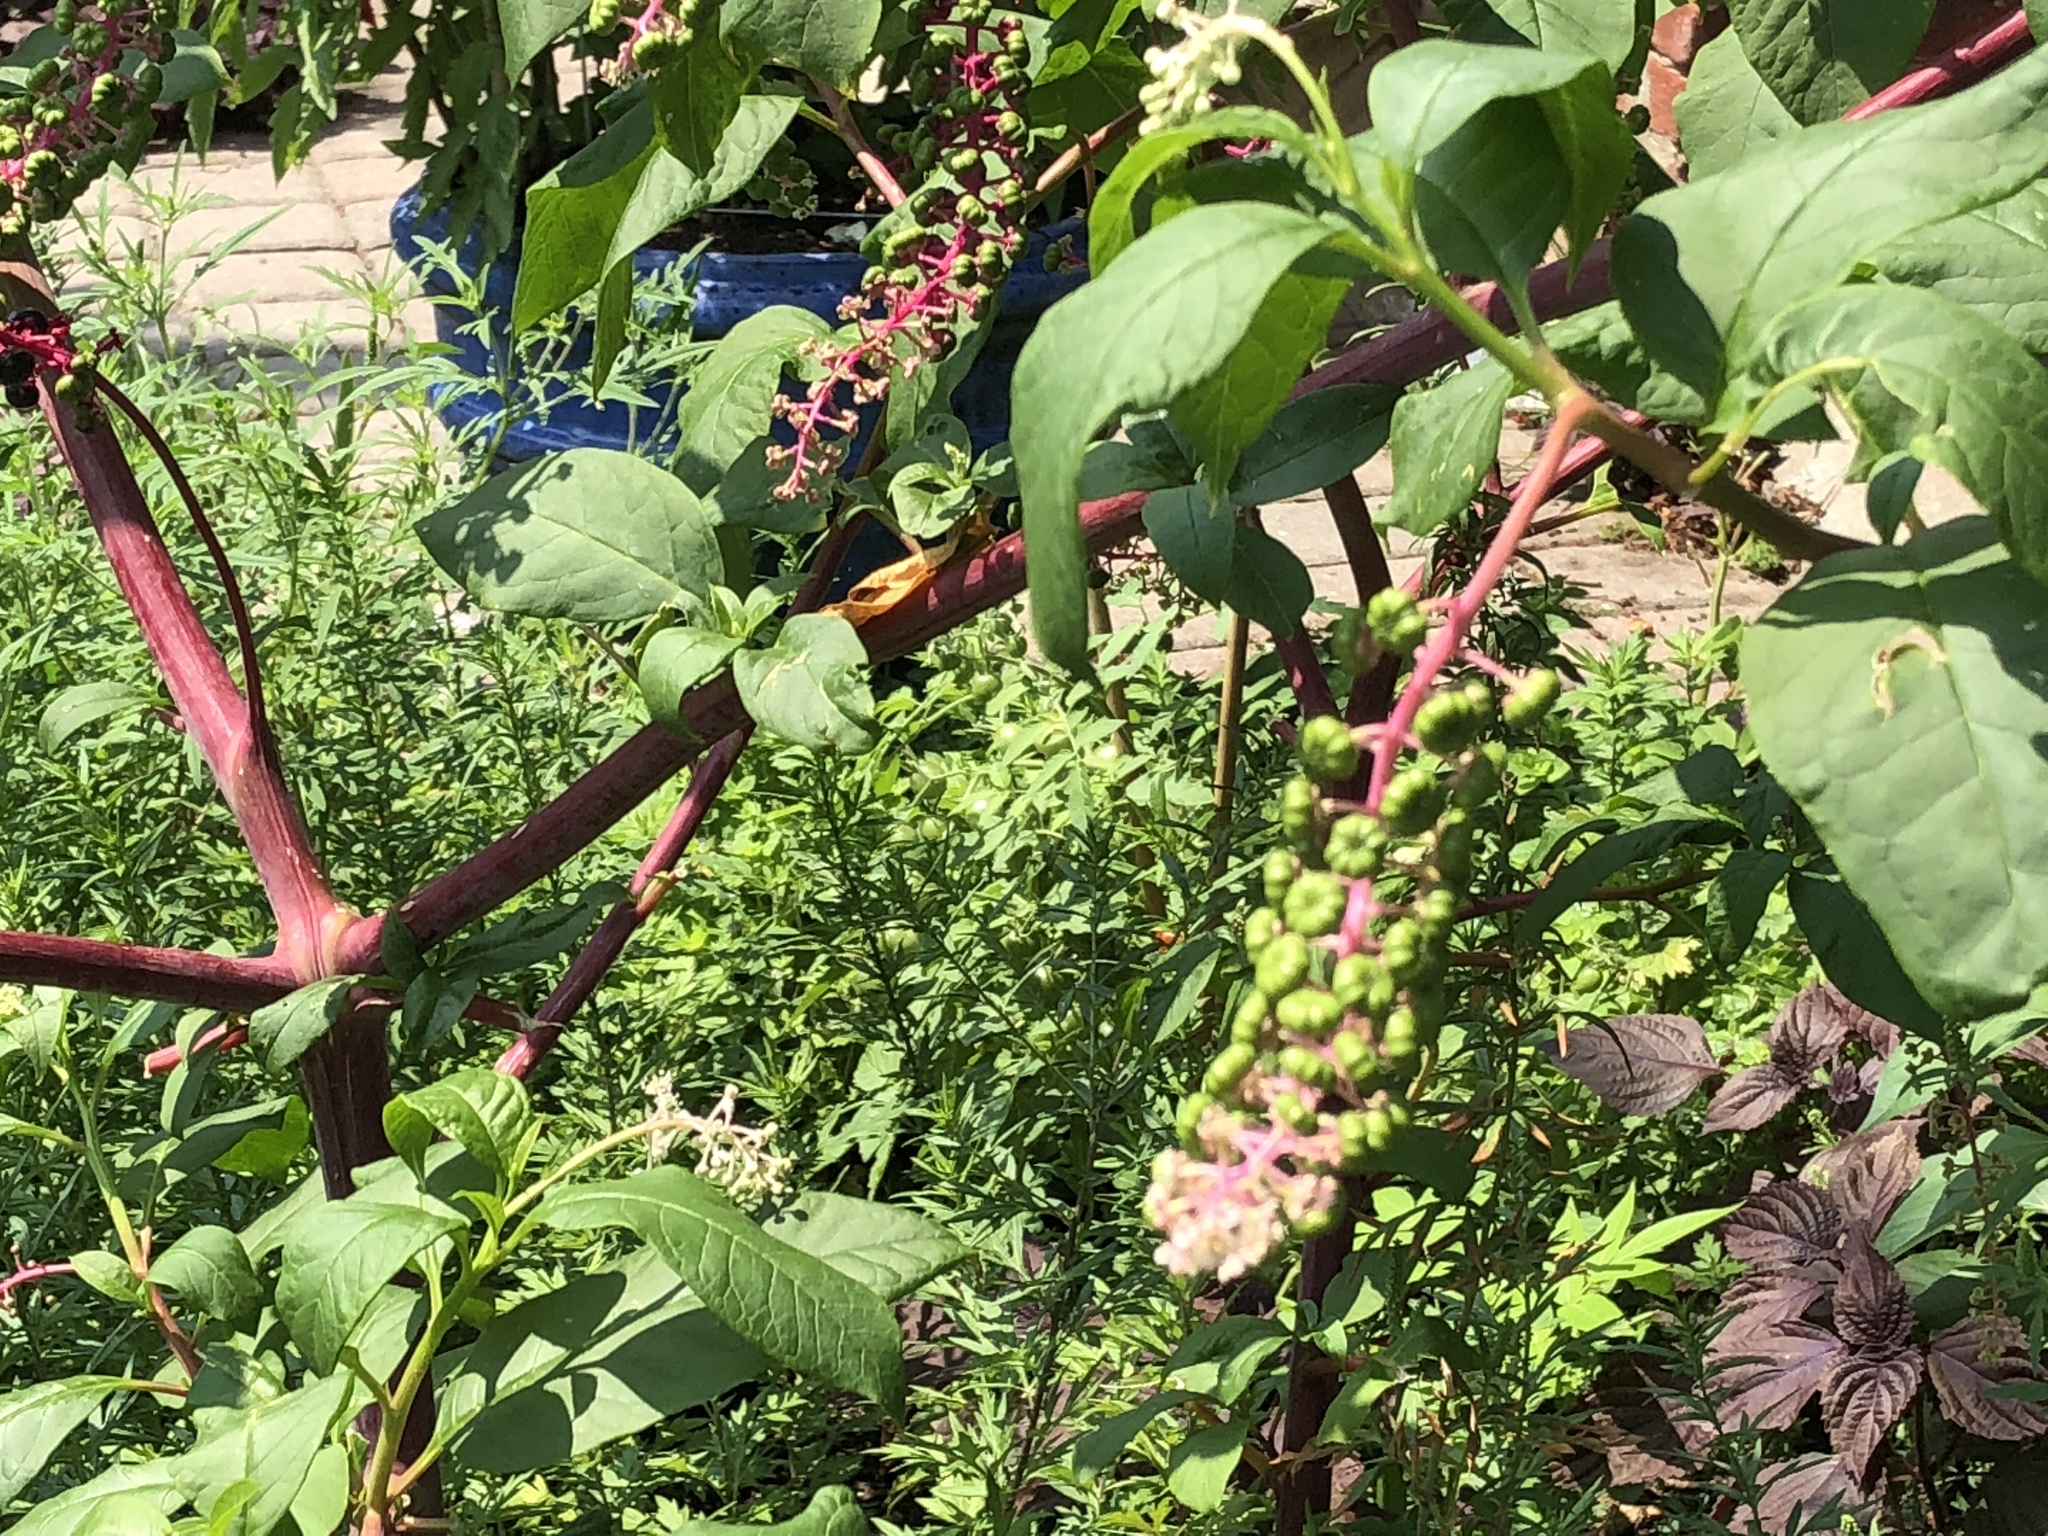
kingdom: Plantae
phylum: Tracheophyta
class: Magnoliopsida
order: Caryophyllales
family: Phytolaccaceae
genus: Phytolacca
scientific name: Phytolacca americana
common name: American pokeweed
